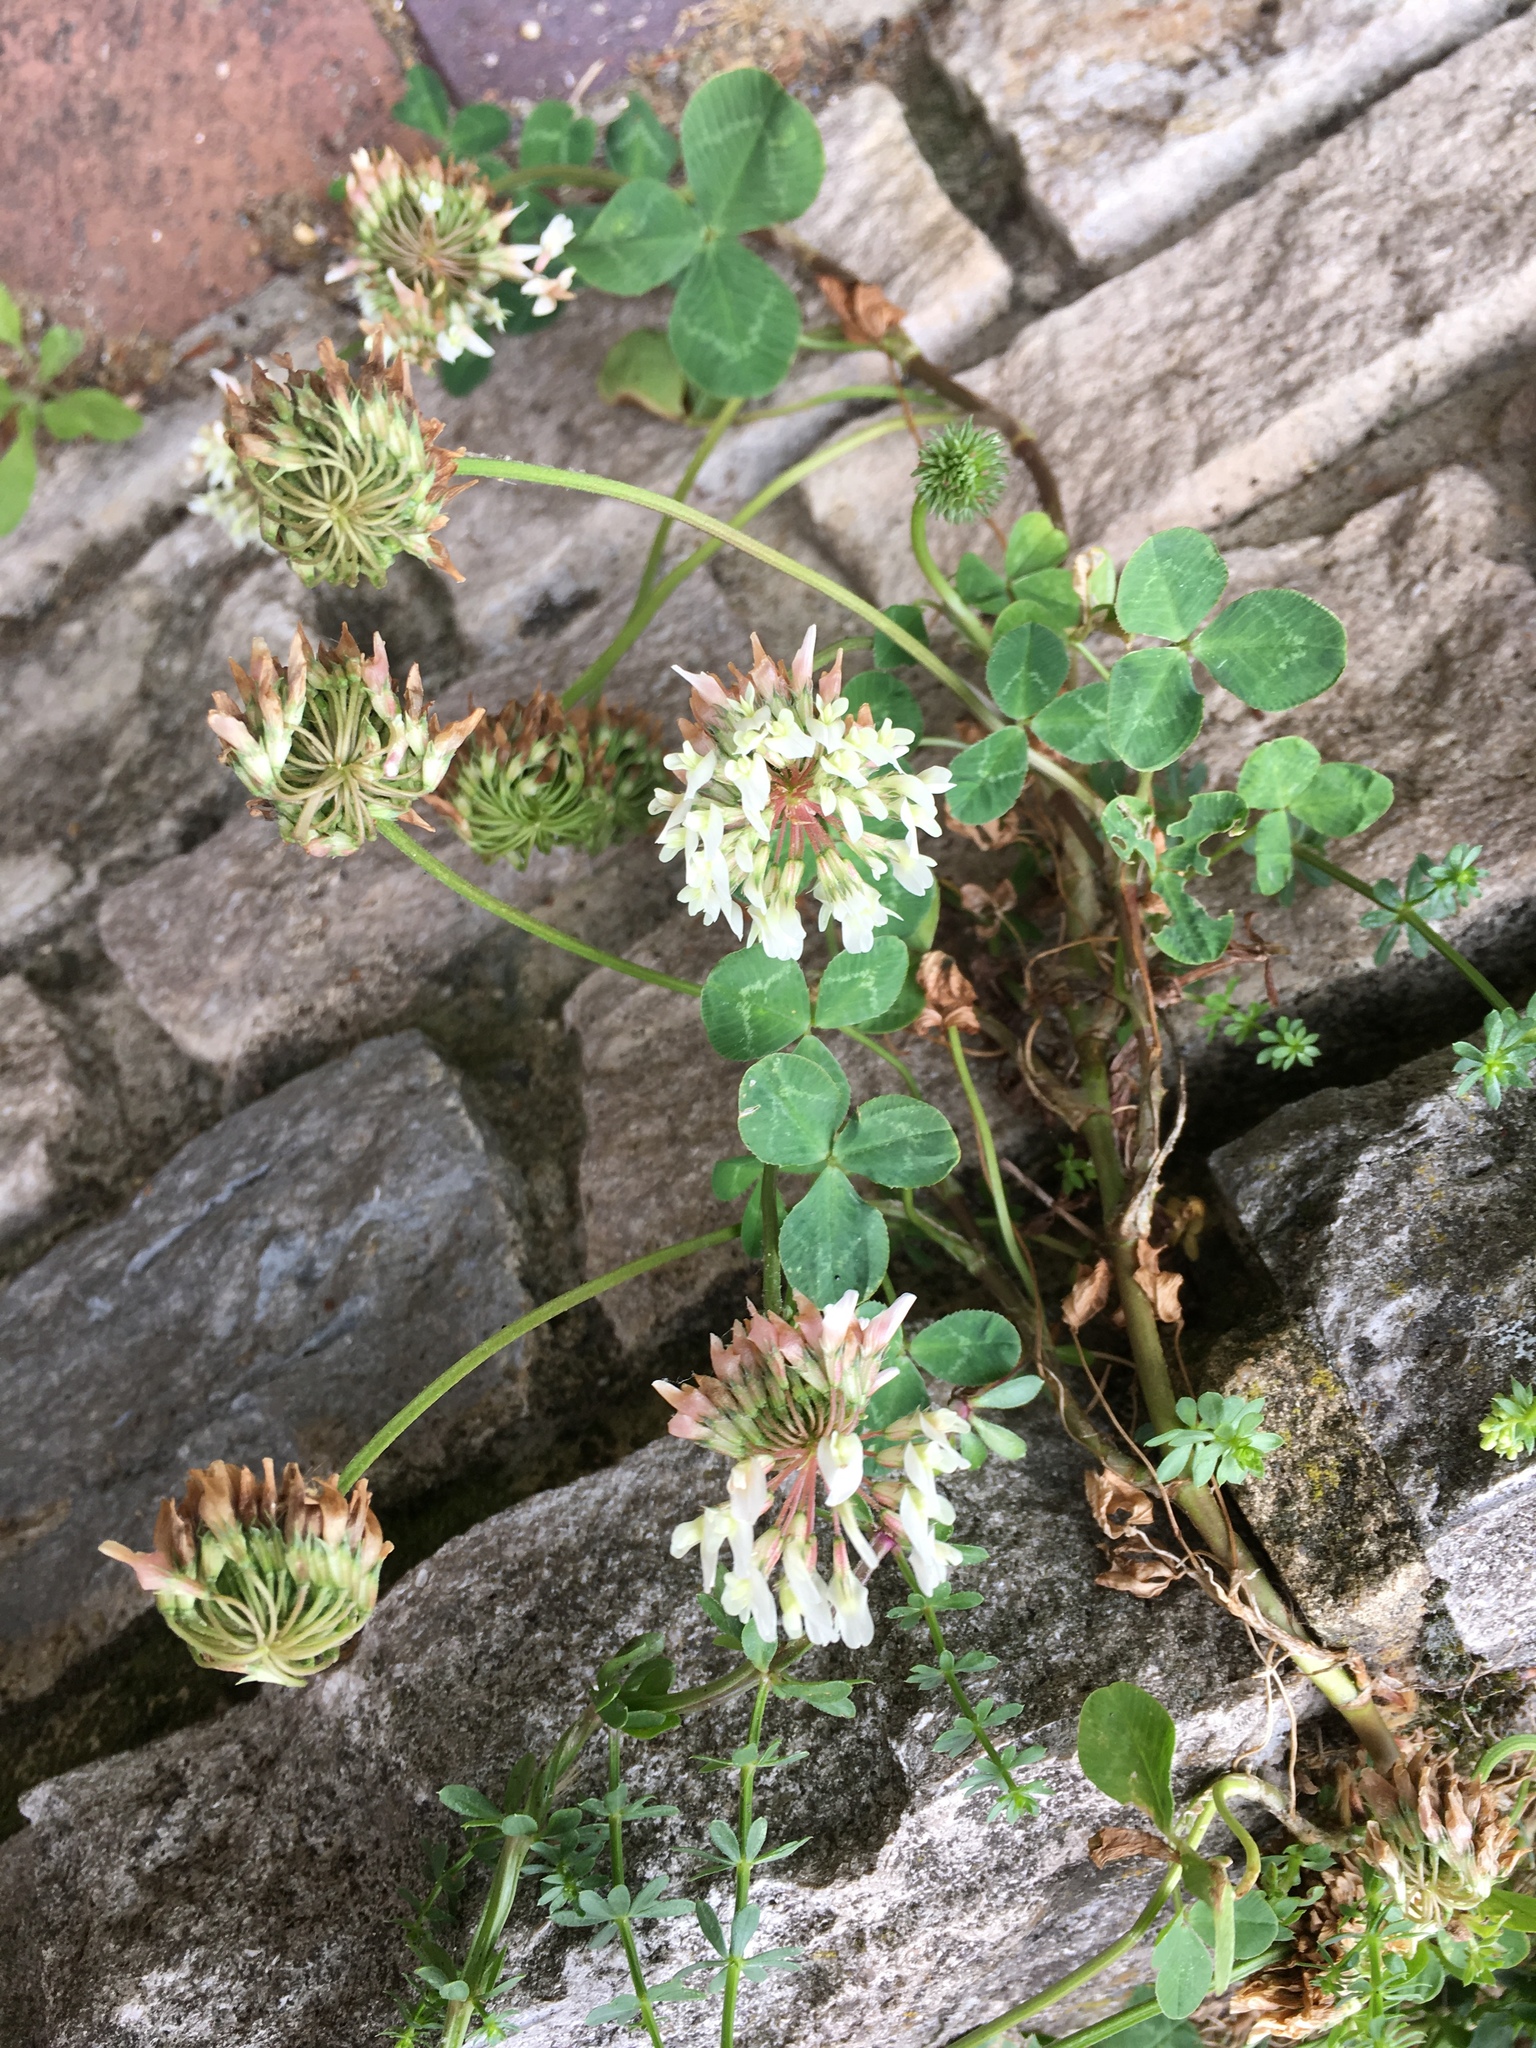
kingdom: Plantae
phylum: Tracheophyta
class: Magnoliopsida
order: Fabales
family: Fabaceae
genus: Trifolium
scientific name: Trifolium repens
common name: White clover
